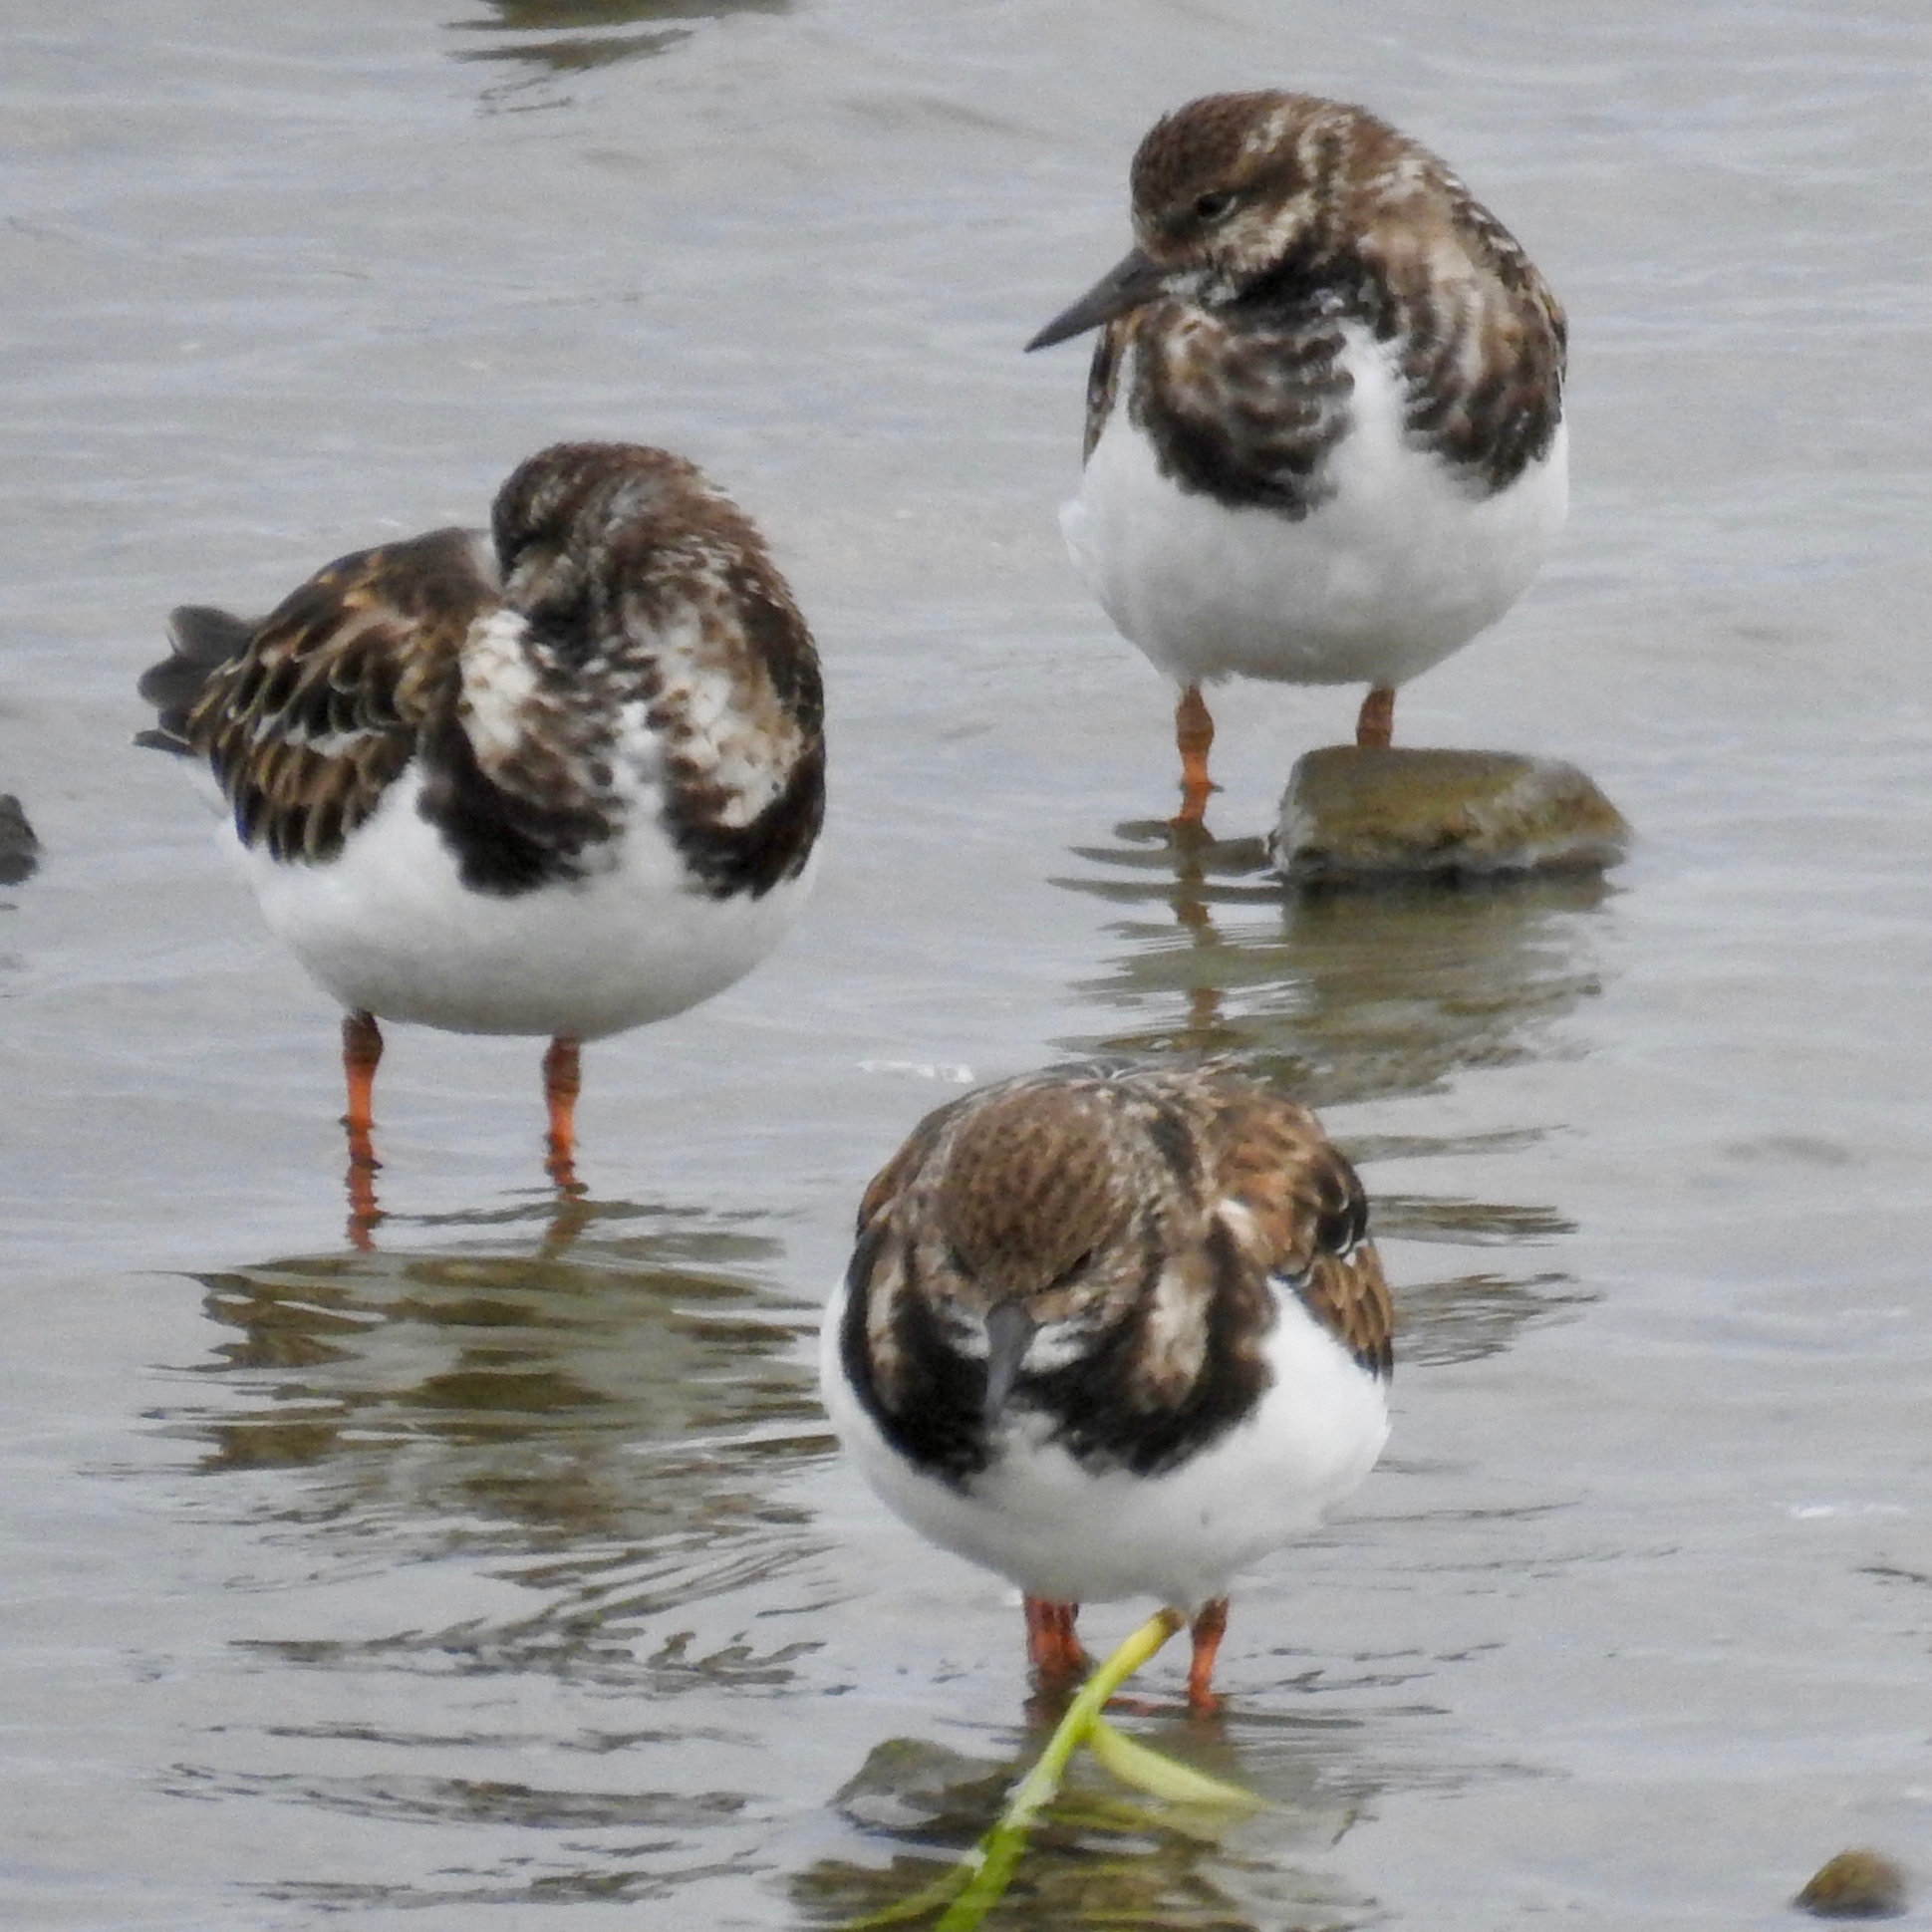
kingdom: Animalia
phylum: Chordata
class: Aves
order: Charadriiformes
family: Scolopacidae
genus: Arenaria
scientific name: Arenaria interpres
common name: Ruddy turnstone
